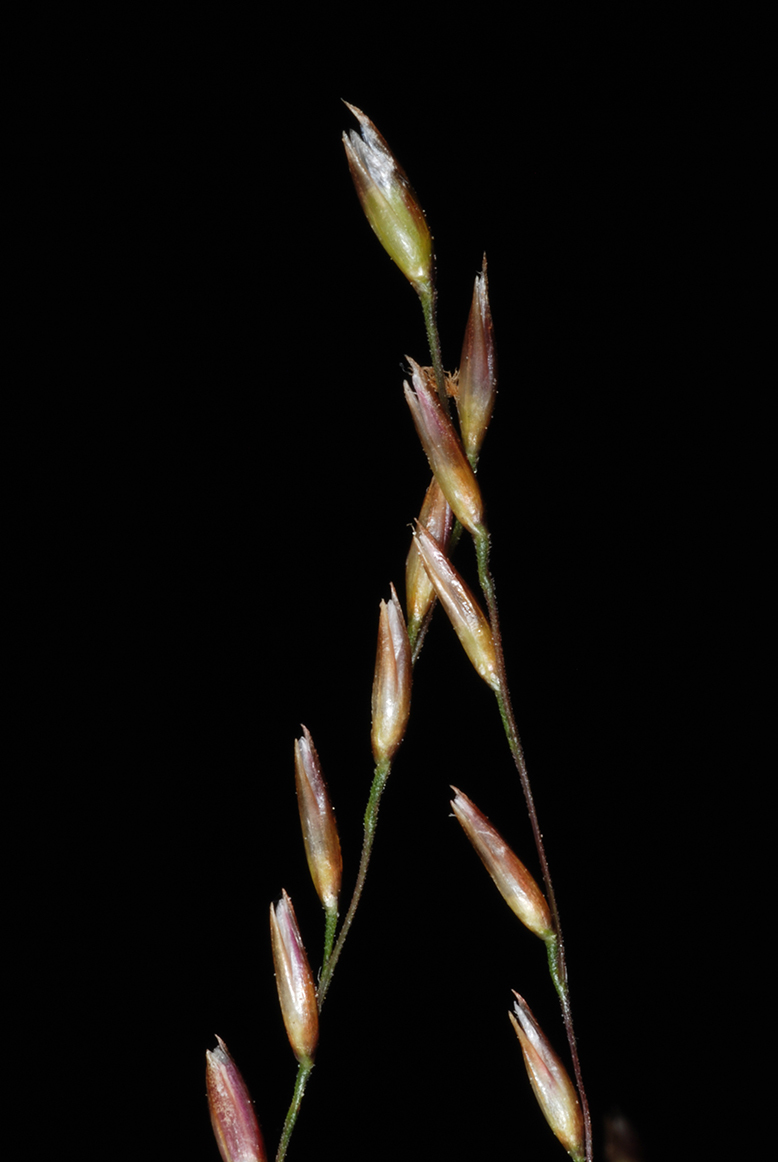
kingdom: Plantae
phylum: Tracheophyta
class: Liliopsida
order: Poales
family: Poaceae
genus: Sporobolus
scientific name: Sporobolus junceus
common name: Lizard grass
